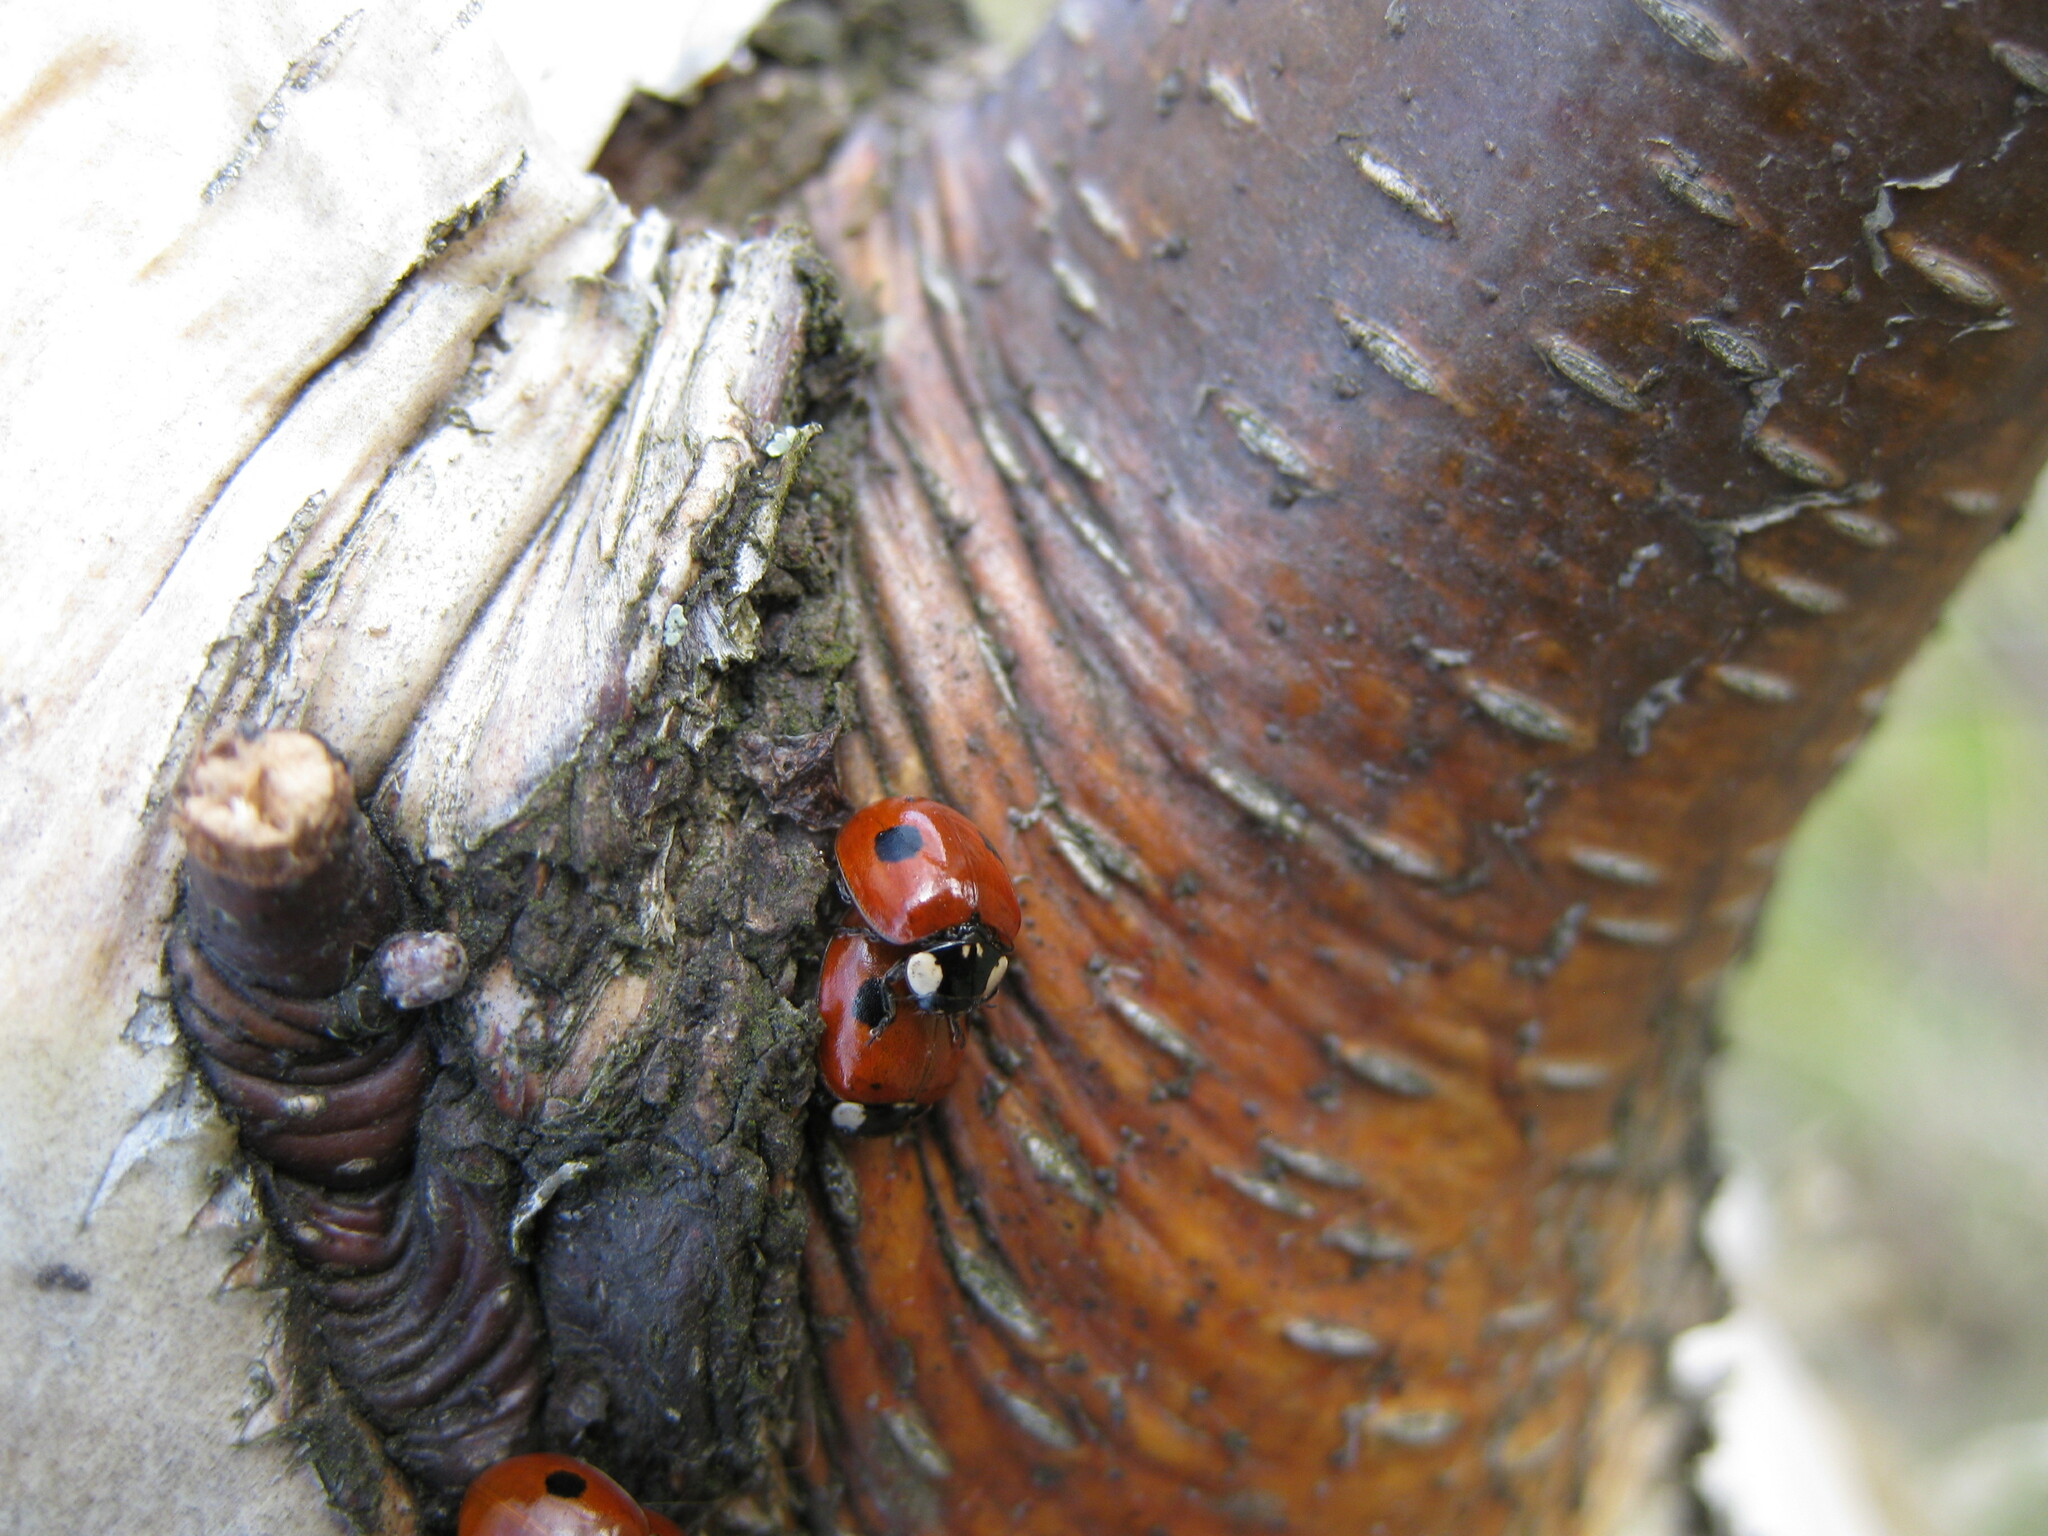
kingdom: Animalia
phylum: Arthropoda
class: Insecta
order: Coleoptera
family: Coccinellidae
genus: Adalia
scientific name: Adalia bipunctata
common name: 2-spot ladybird
